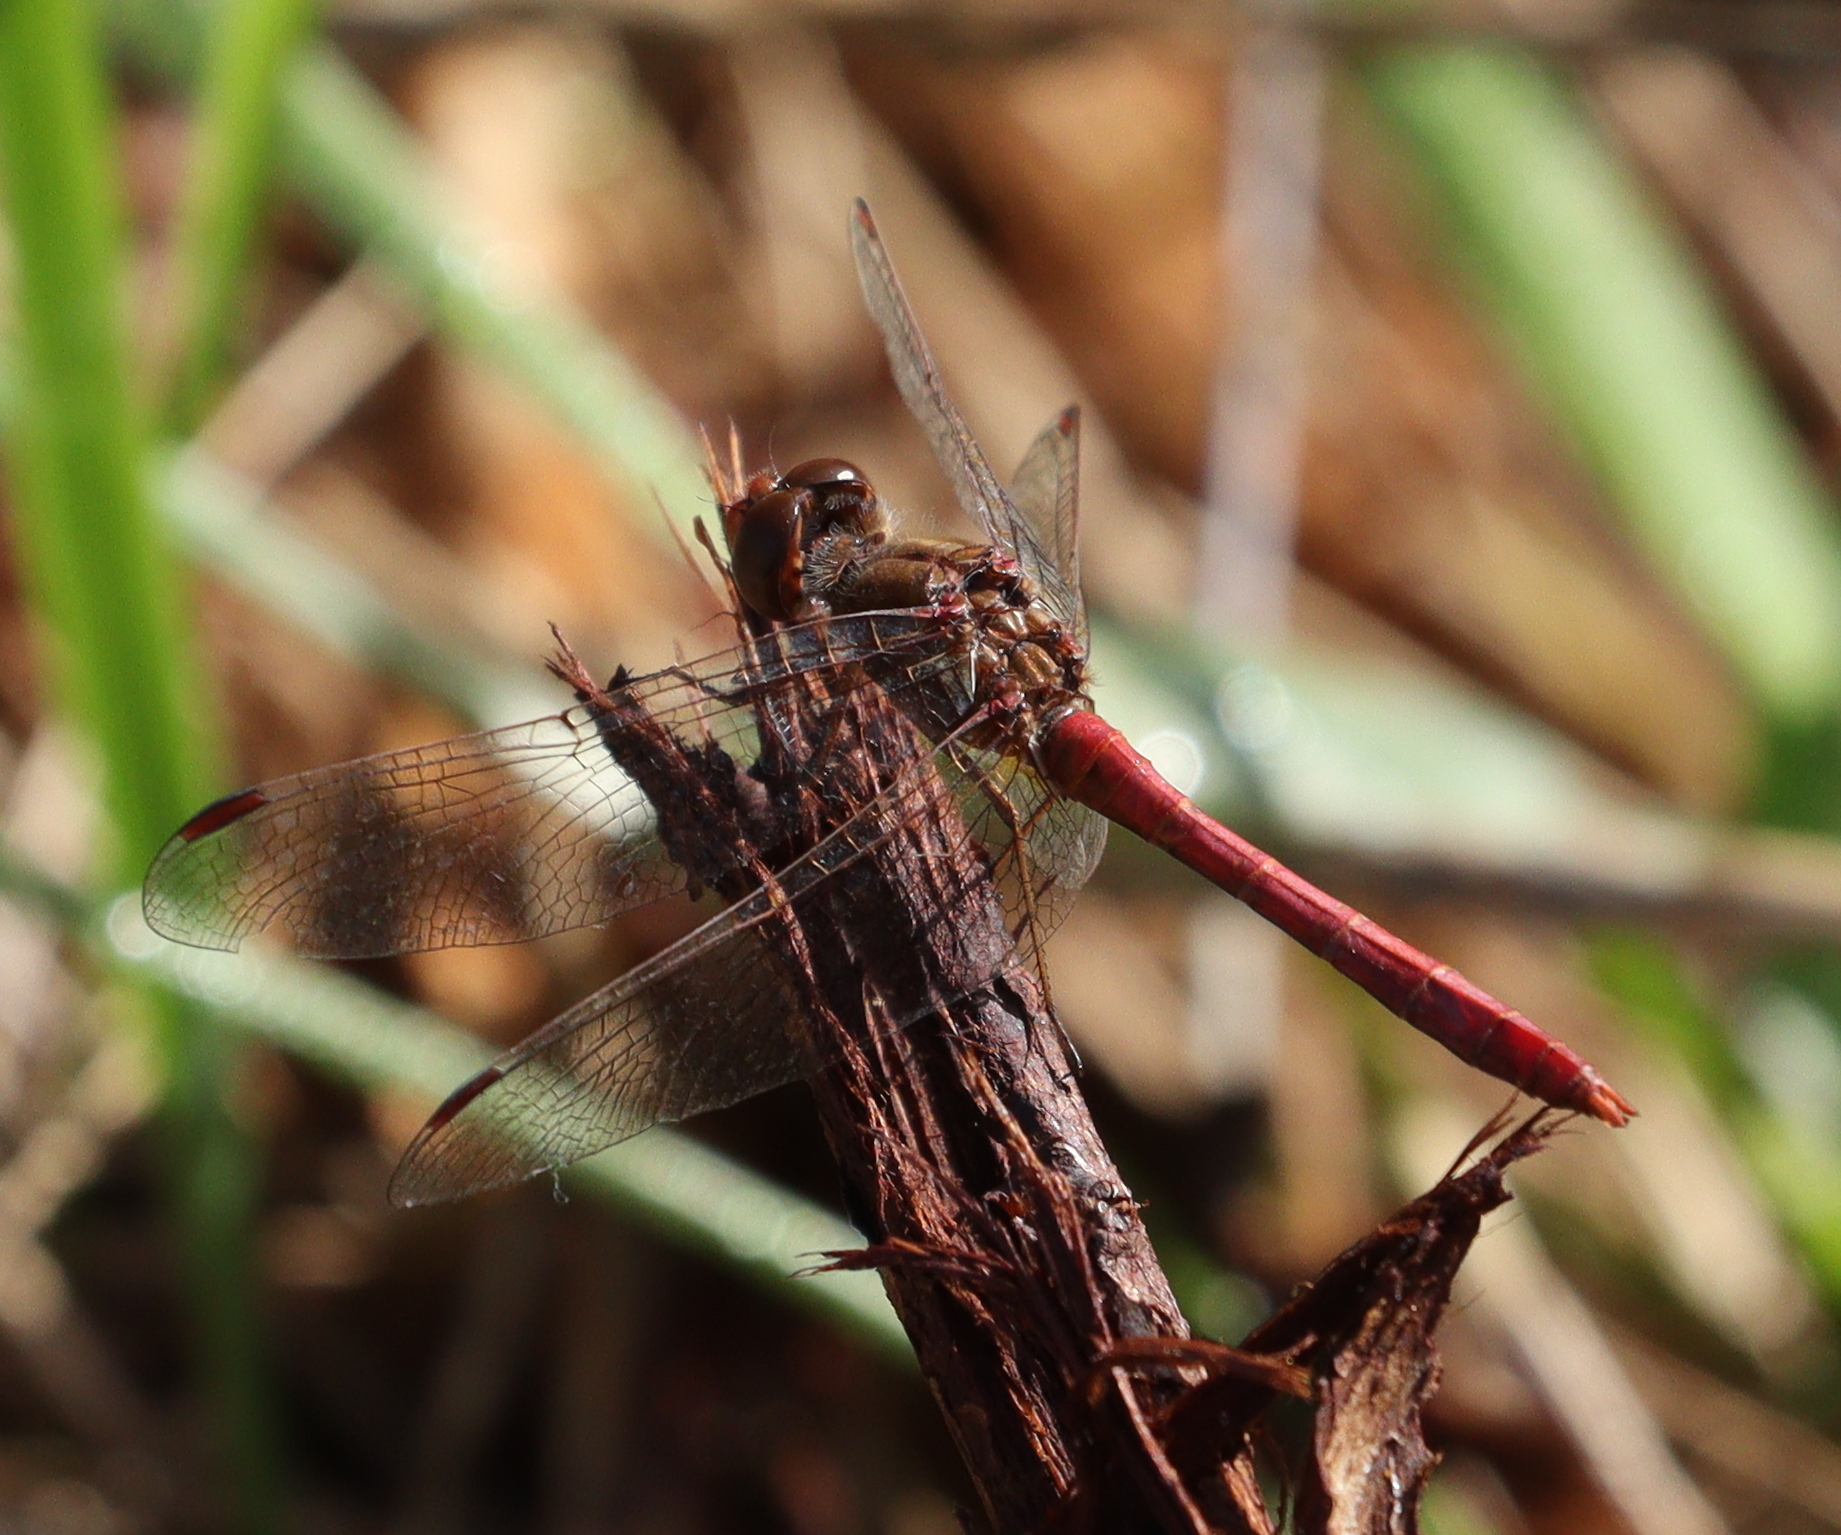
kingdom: Animalia
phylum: Arthropoda
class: Insecta
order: Odonata
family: Libellulidae
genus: Sympetrum
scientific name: Sympetrum meridionale
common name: Southern darter
